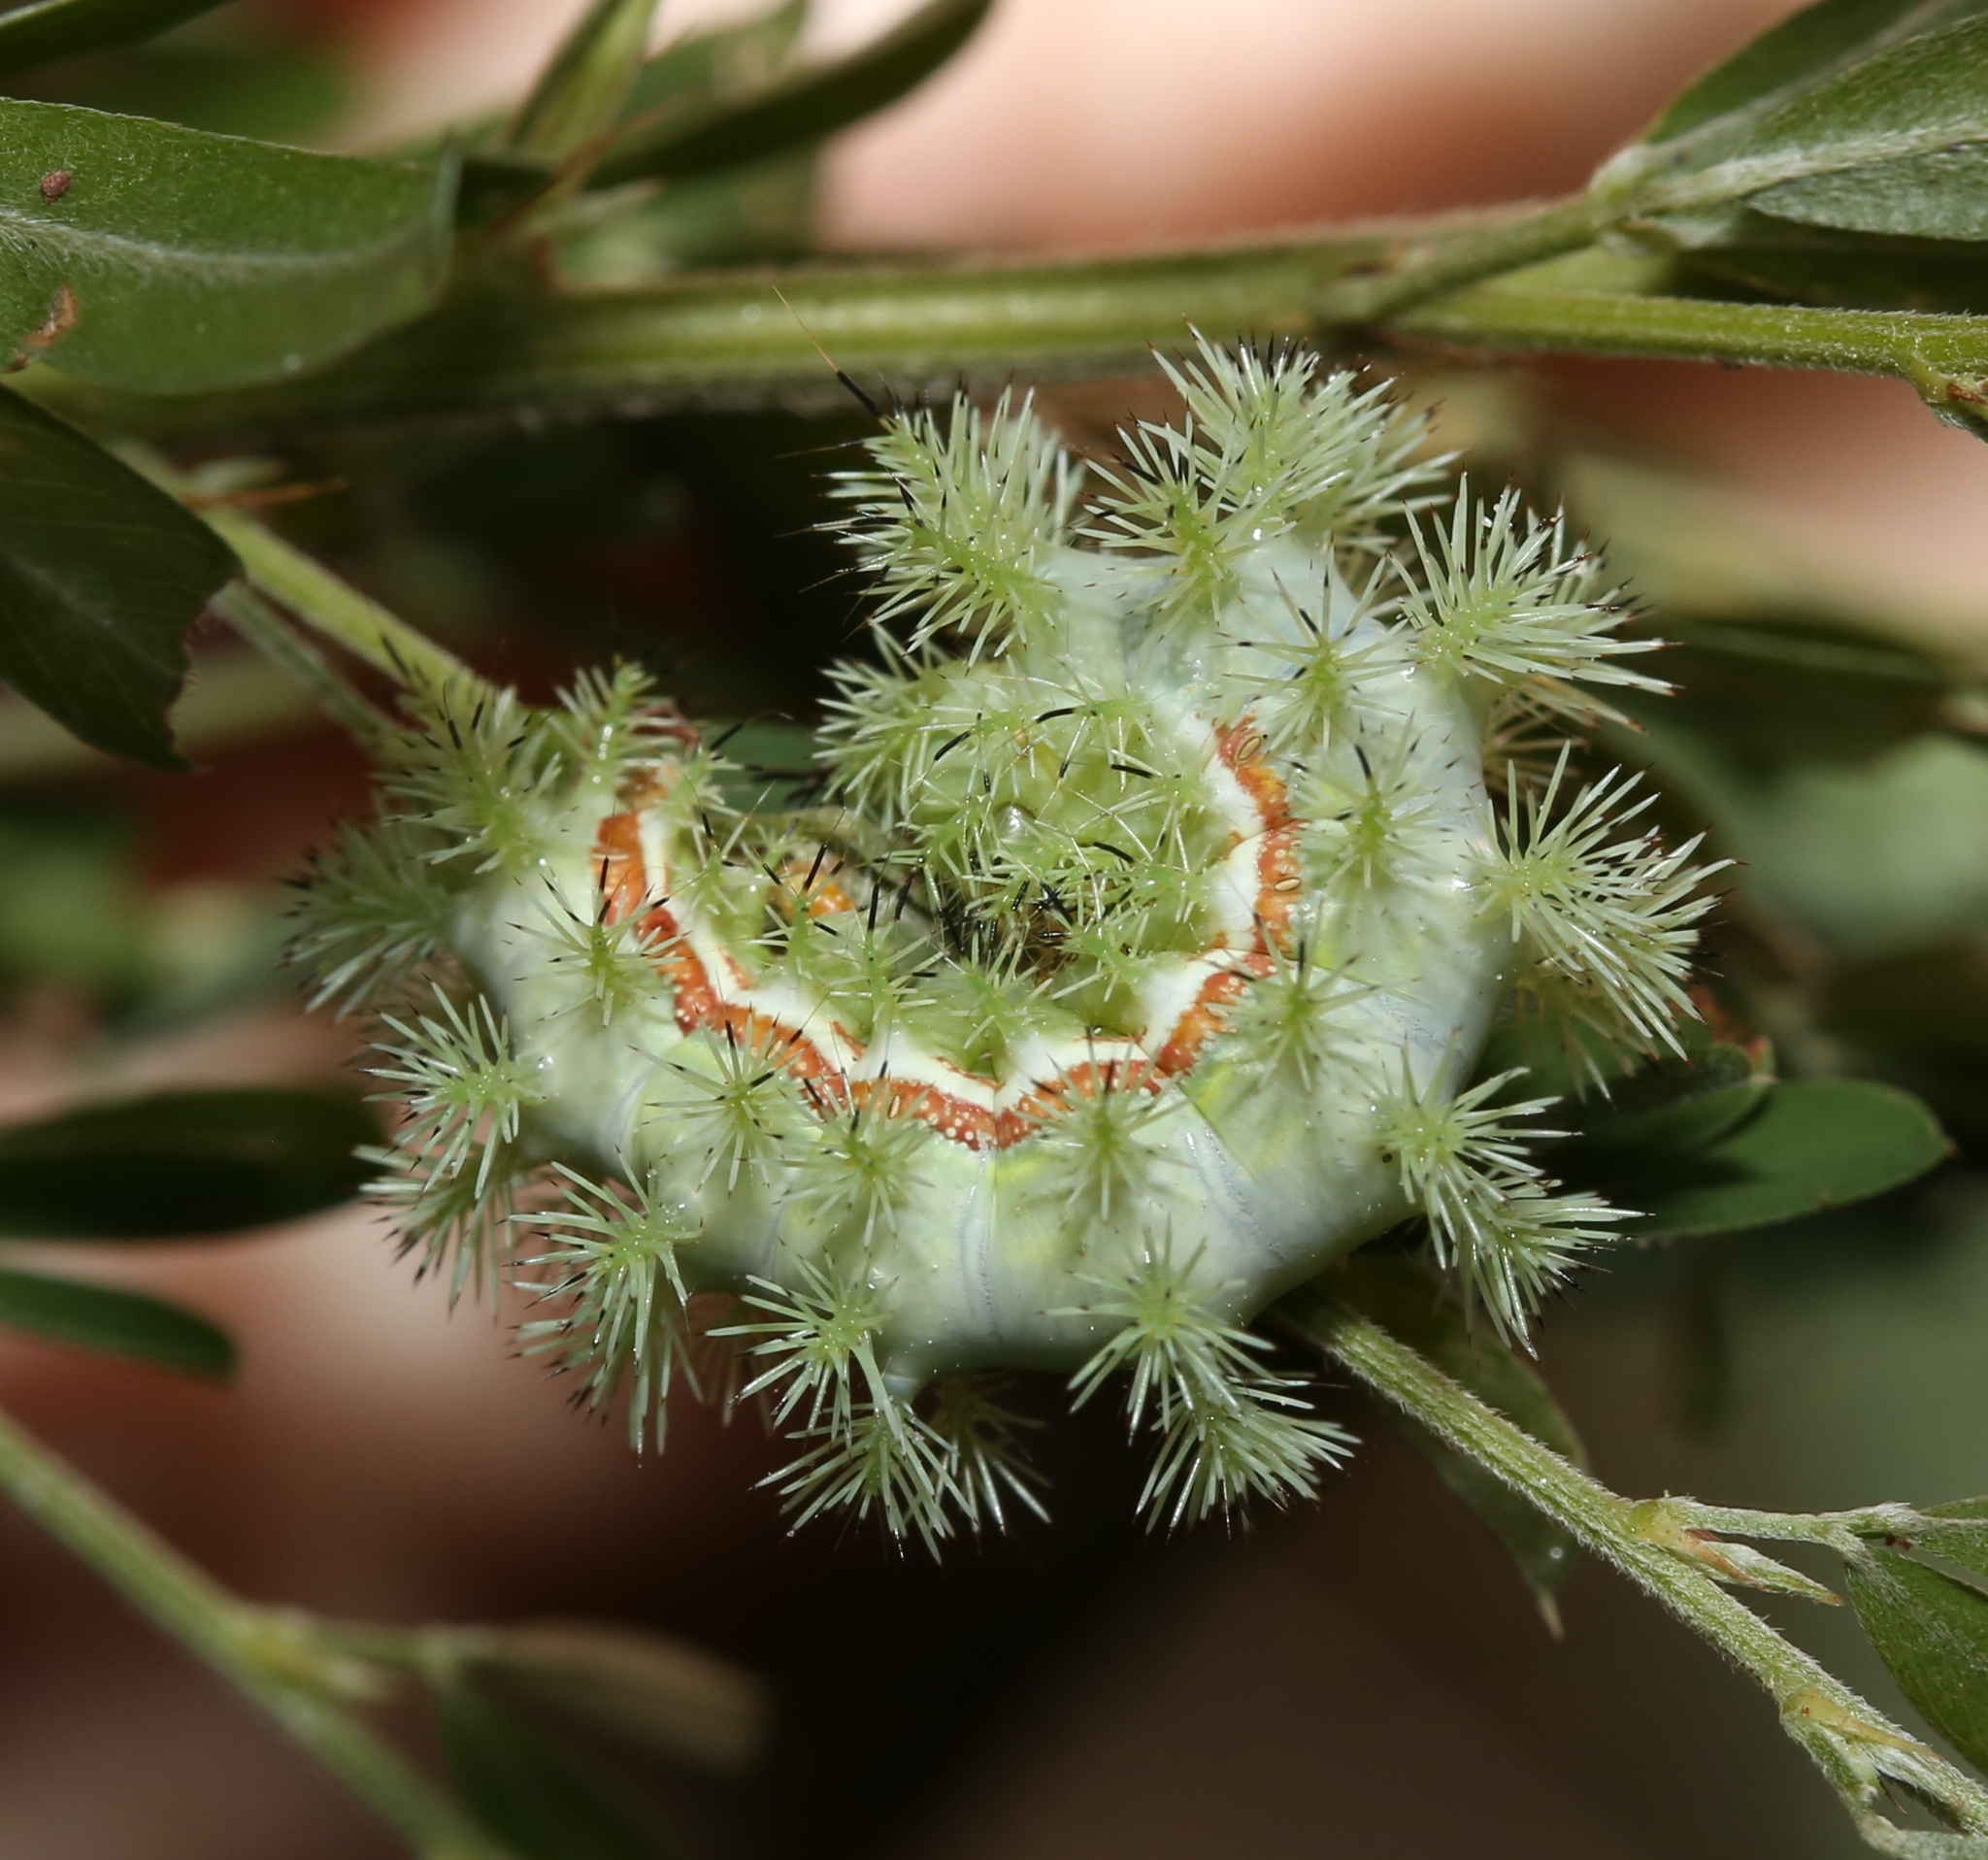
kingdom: Animalia
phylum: Arthropoda
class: Insecta
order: Lepidoptera
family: Saturniidae
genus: Automeris
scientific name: Automeris io
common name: Io moth
